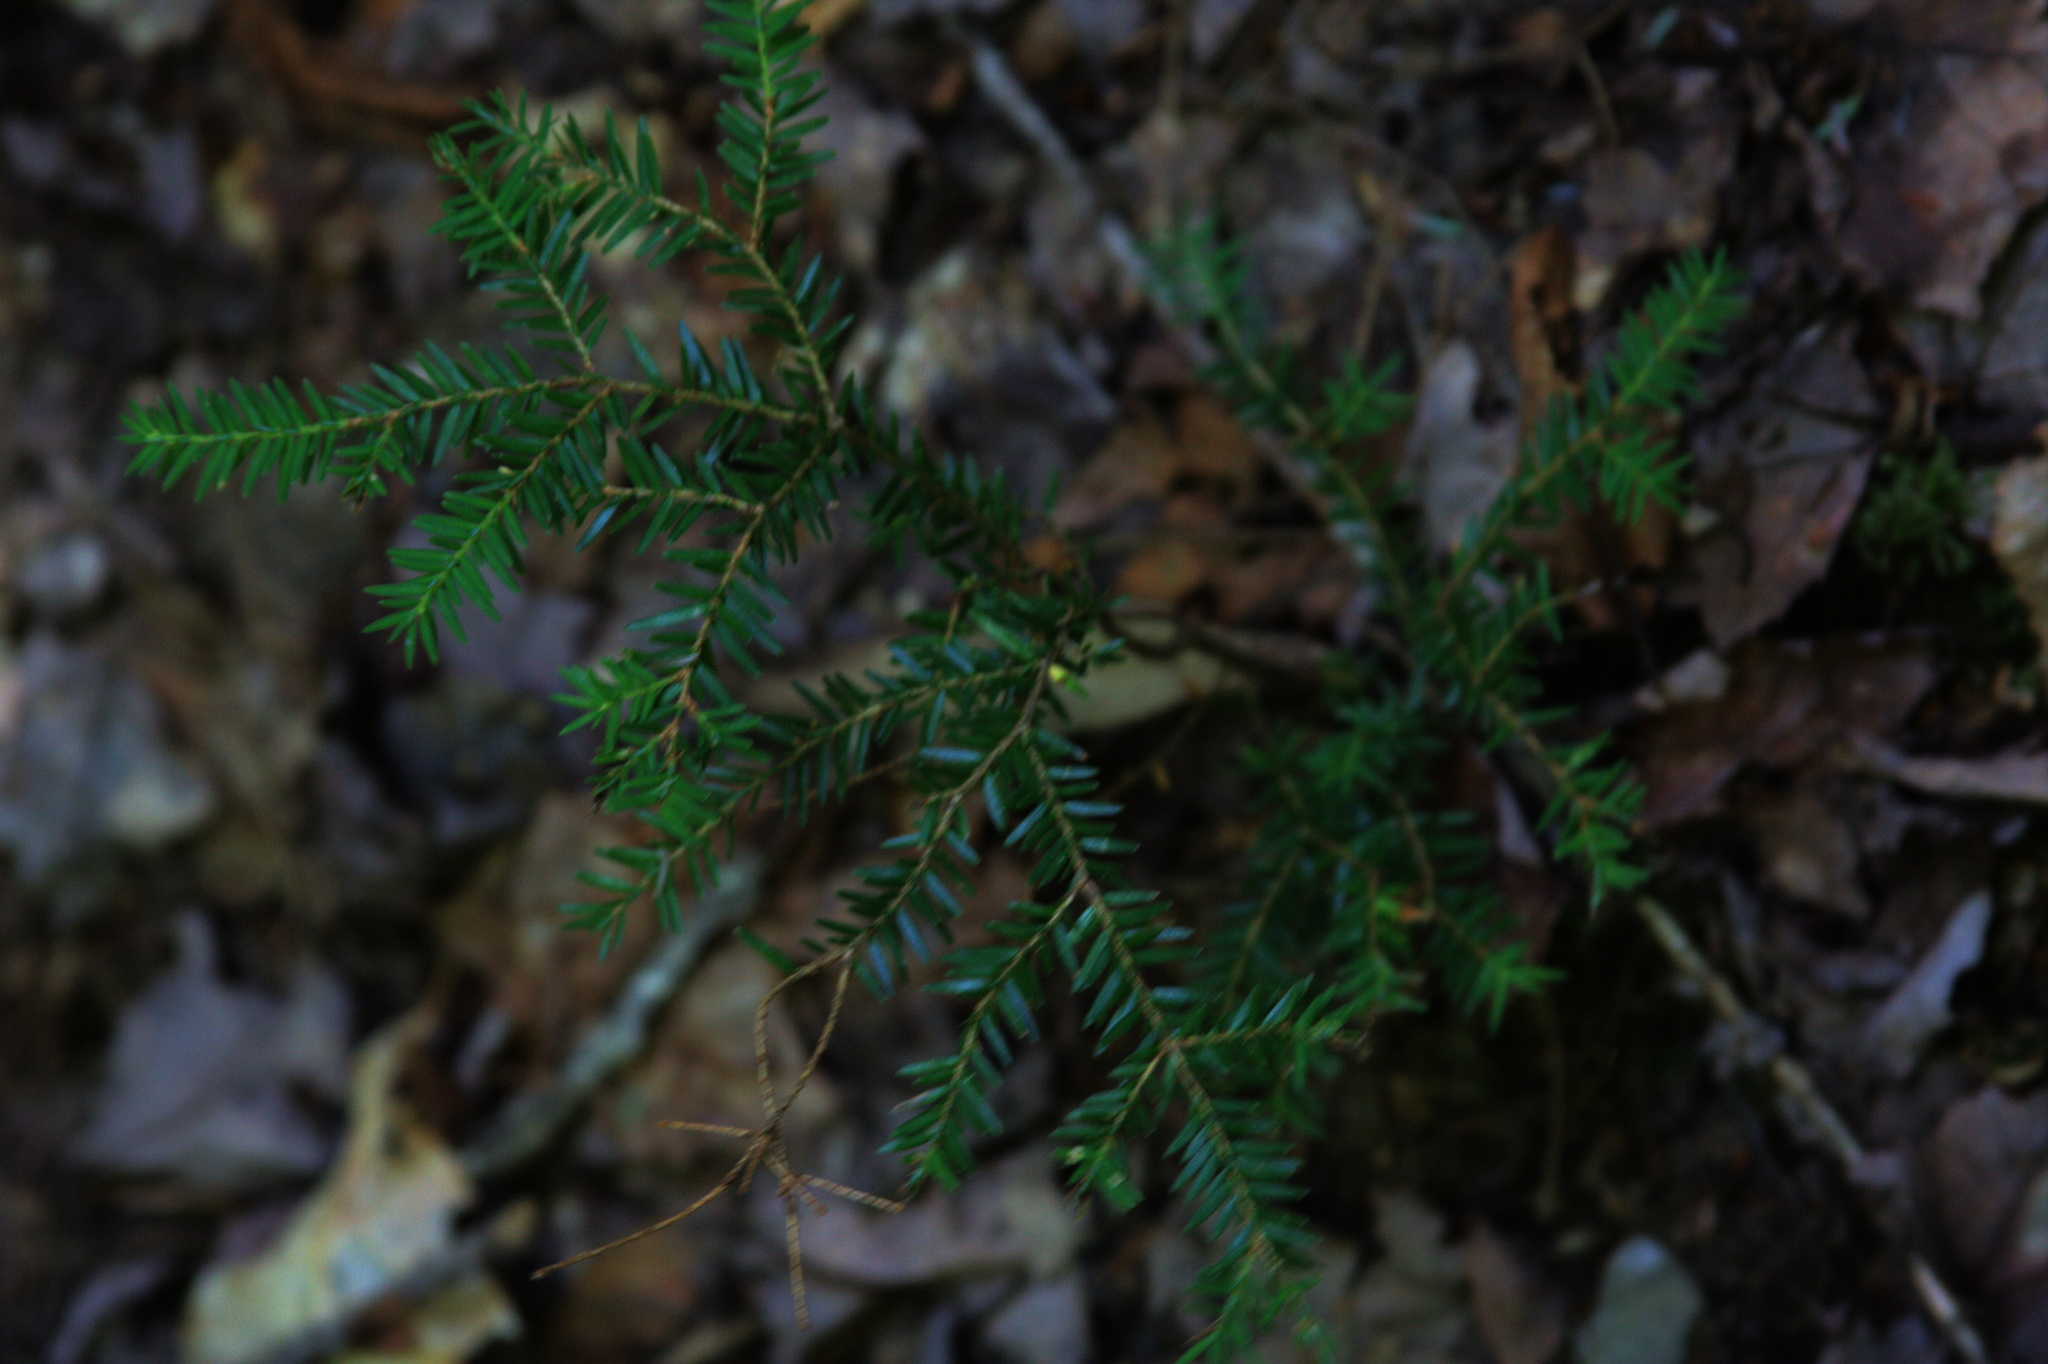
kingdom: Plantae
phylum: Tracheophyta
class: Pinopsida
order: Pinales
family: Pinaceae
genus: Tsuga
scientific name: Tsuga canadensis
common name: Eastern hemlock
